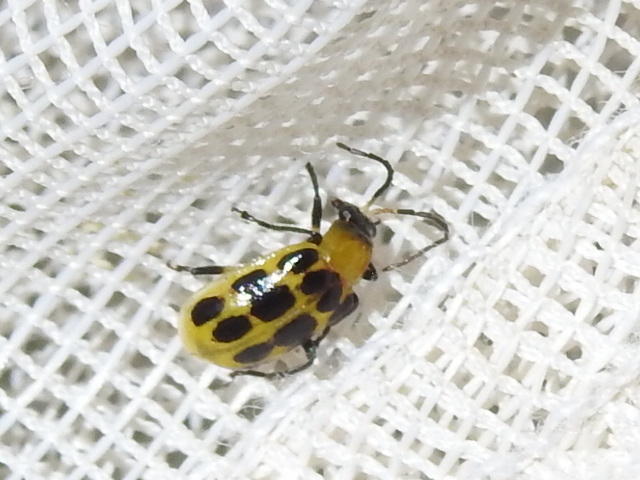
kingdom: Animalia
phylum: Arthropoda
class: Insecta
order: Coleoptera
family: Chrysomelidae
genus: Diabrotica
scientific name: Diabrotica undecimpunctata
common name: Spotted cucumber beetle
